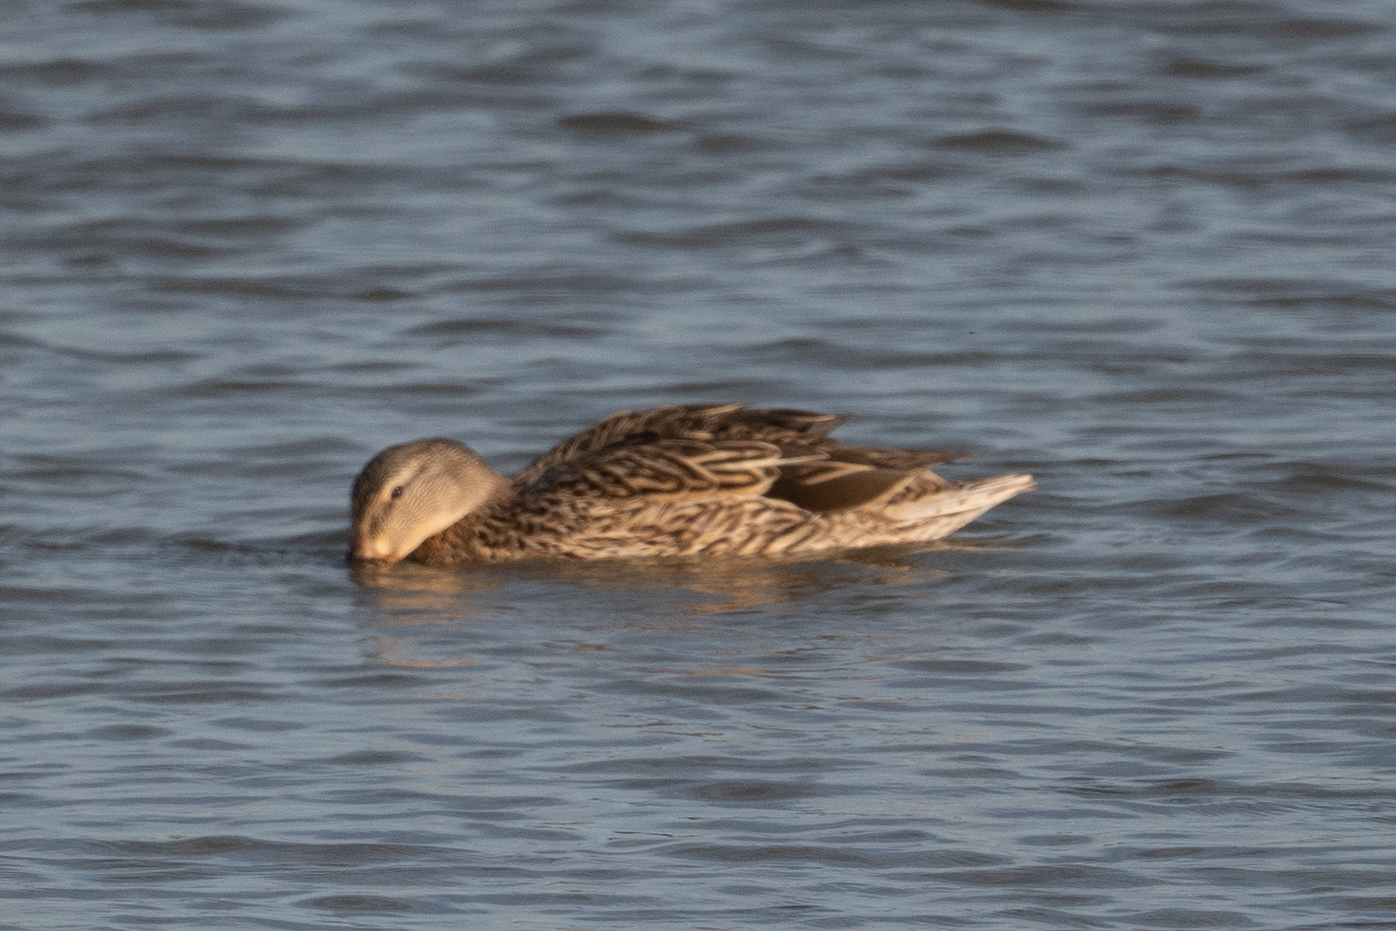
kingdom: Animalia
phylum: Chordata
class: Aves
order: Anseriformes
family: Anatidae
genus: Anas
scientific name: Anas platyrhynchos
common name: Mallard
